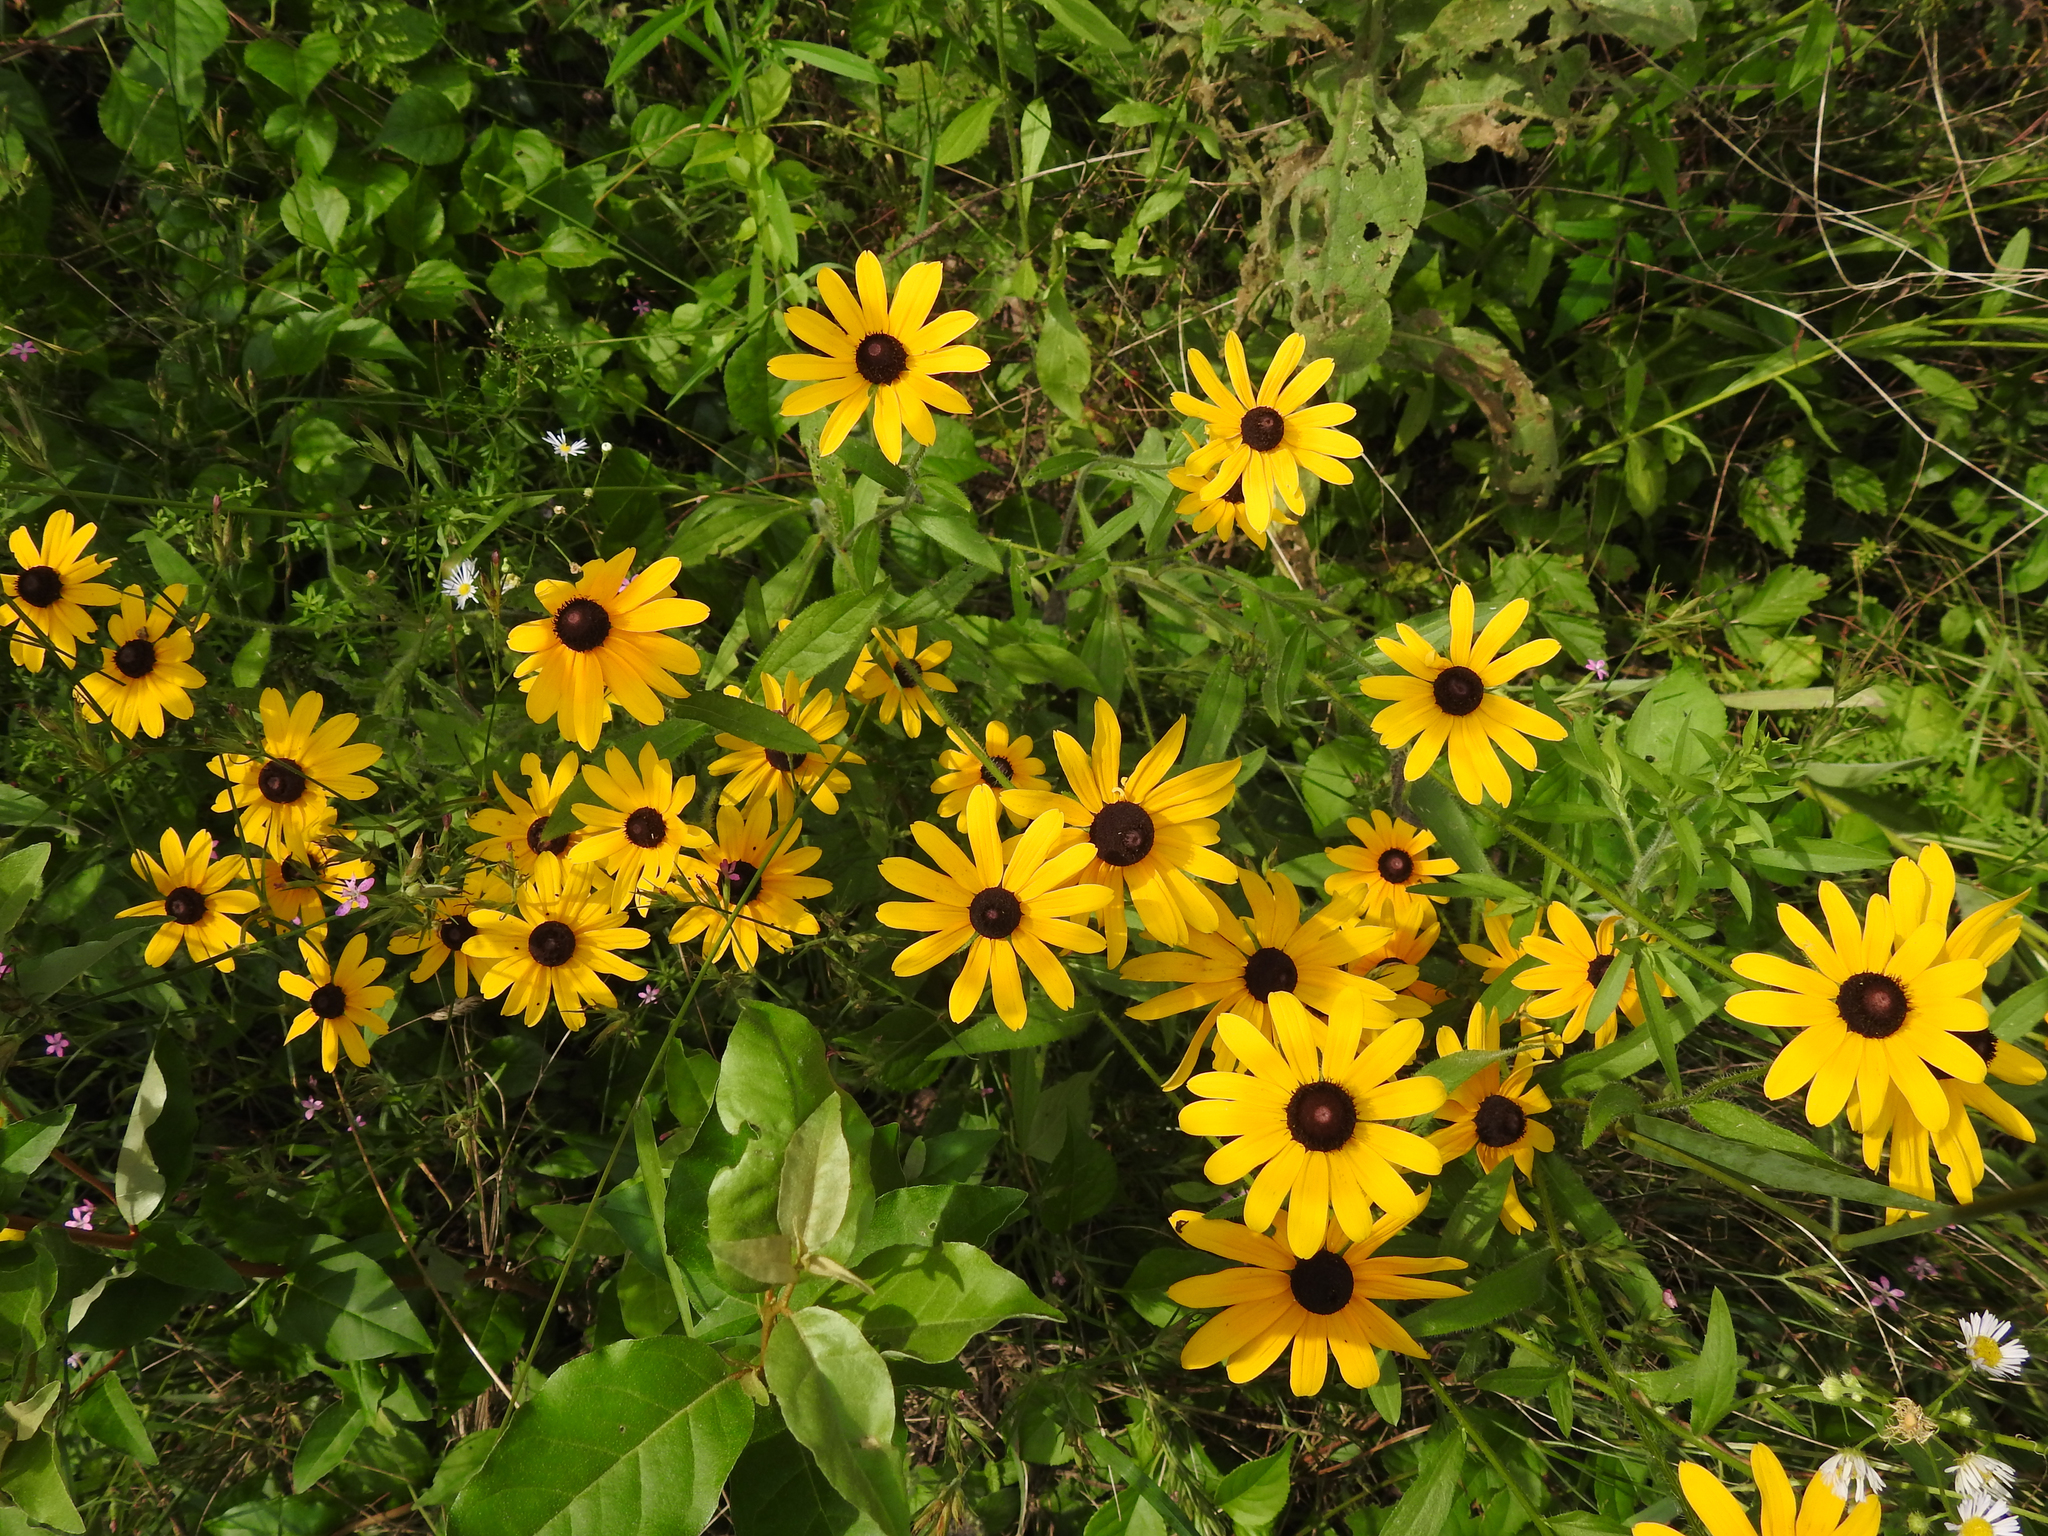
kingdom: Plantae
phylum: Tracheophyta
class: Magnoliopsida
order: Asterales
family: Asteraceae
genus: Rudbeckia
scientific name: Rudbeckia hirta
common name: Black-eyed-susan
